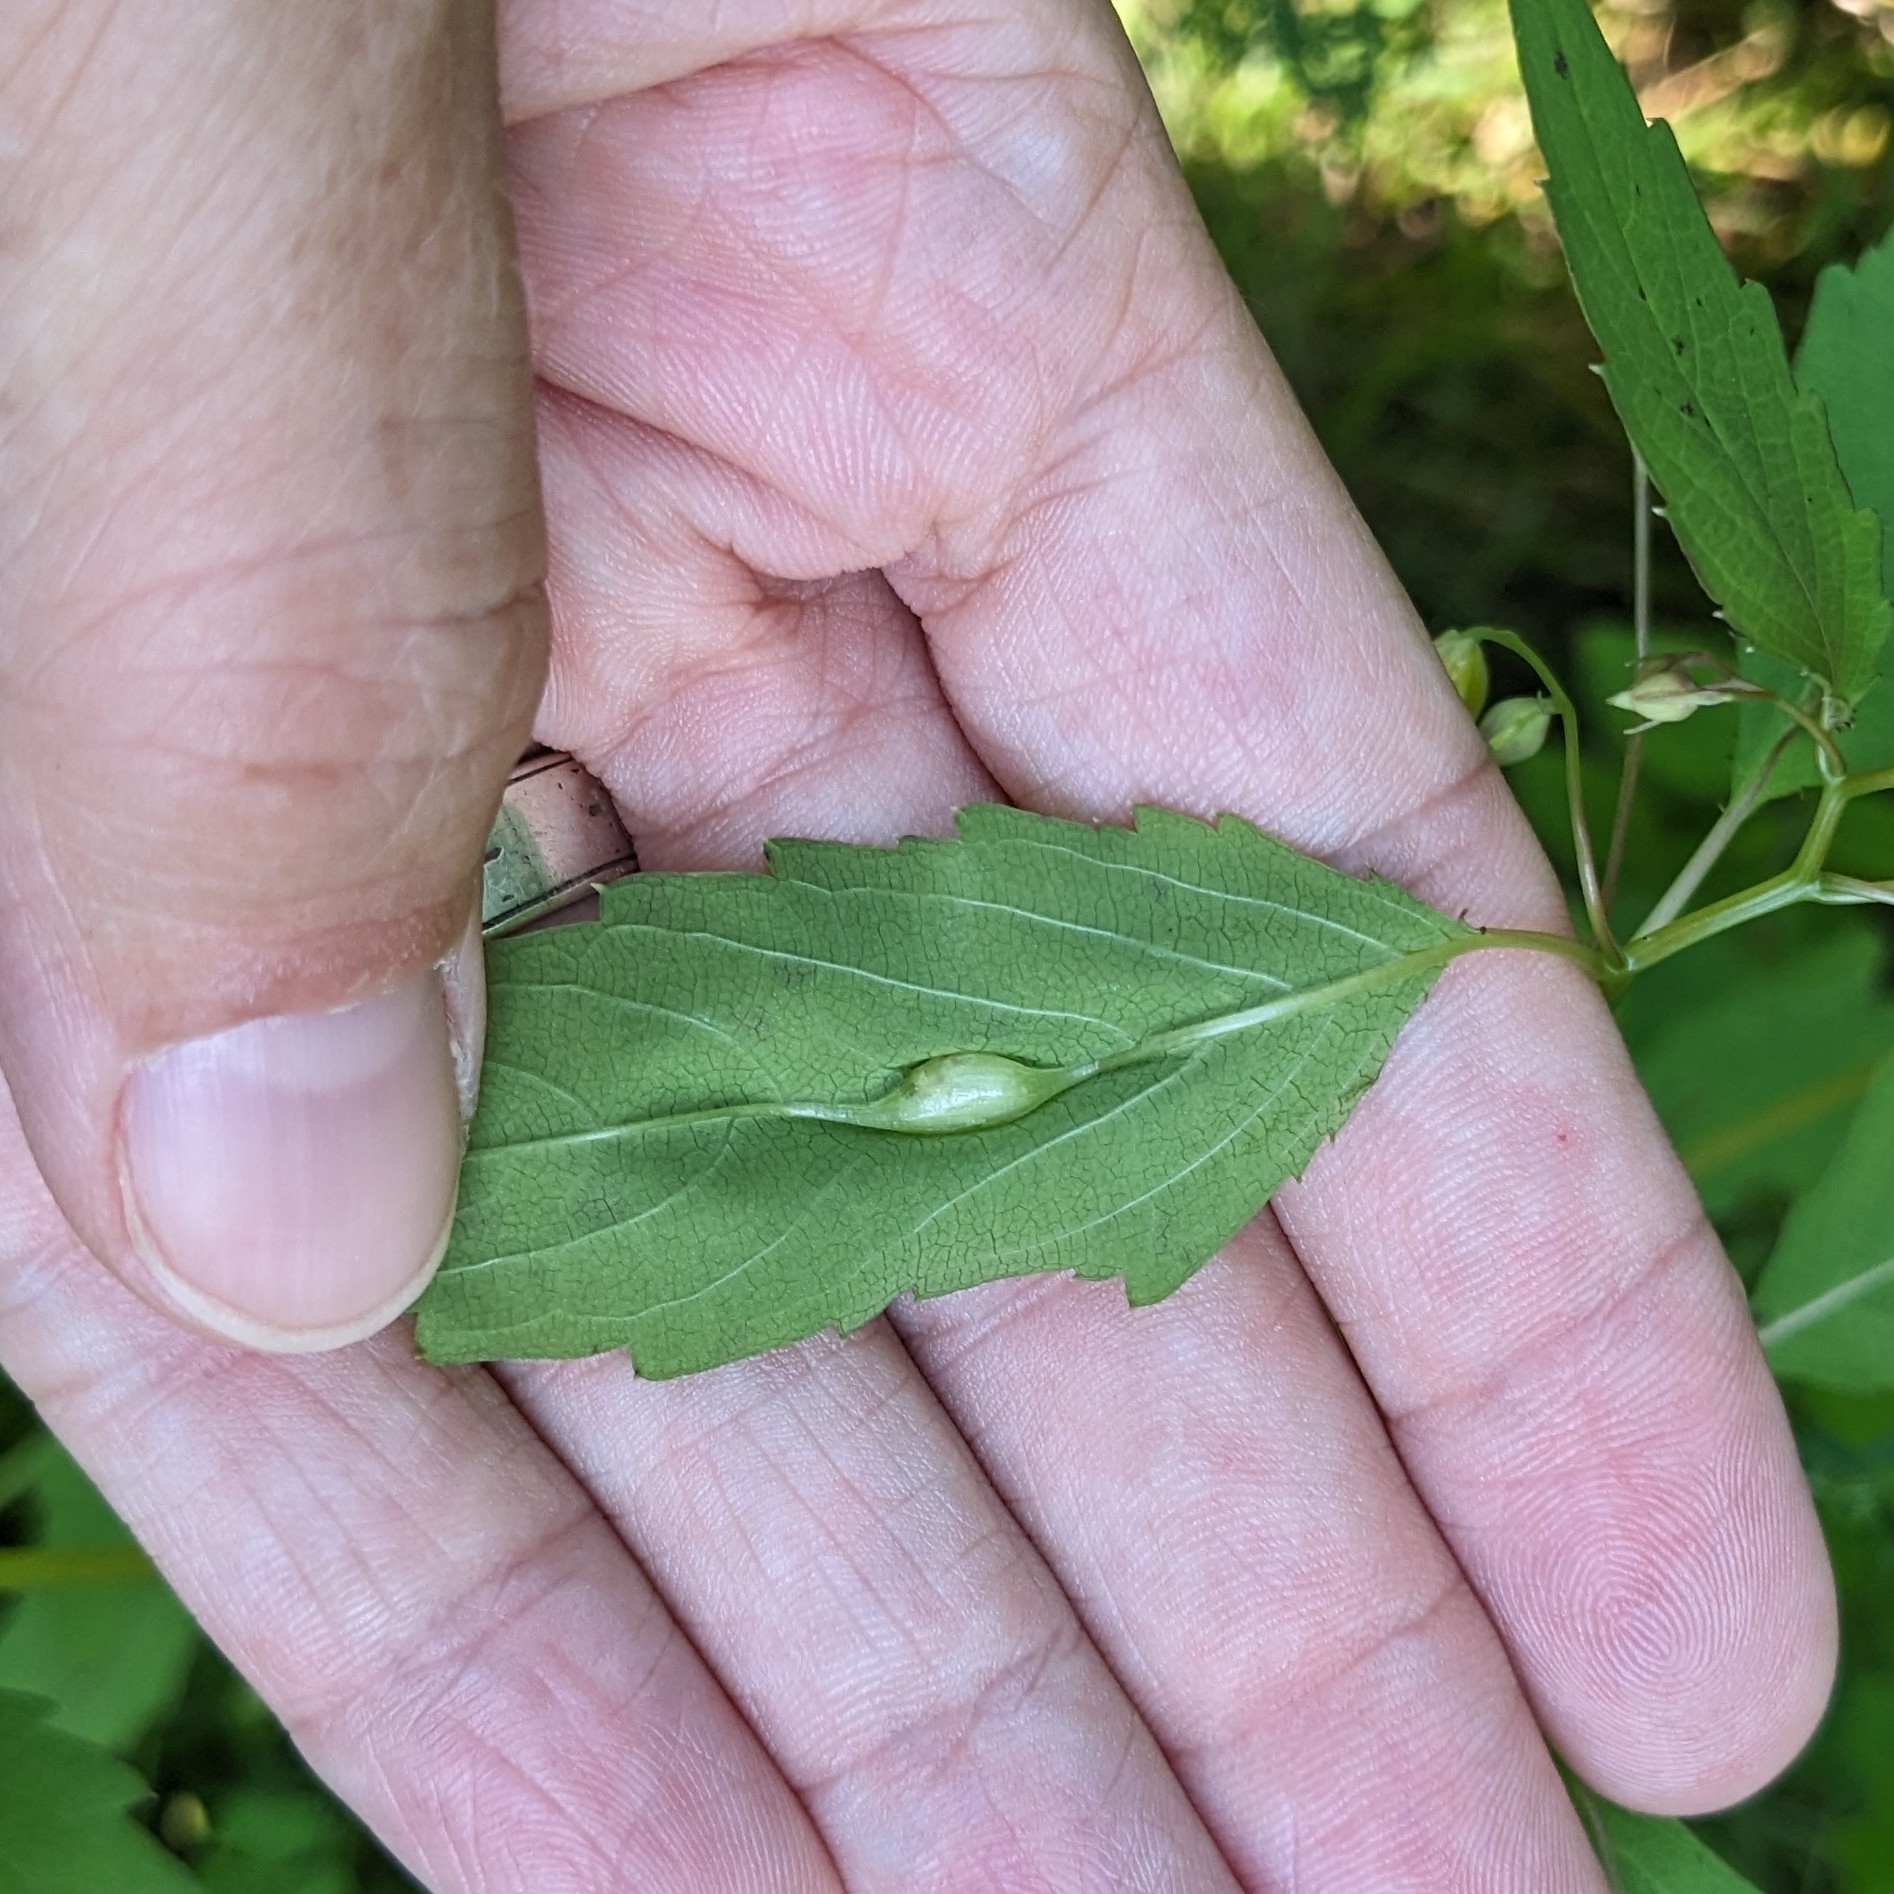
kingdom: Animalia
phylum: Arthropoda
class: Insecta
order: Diptera
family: Cecidomyiidae
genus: Neolasioptera
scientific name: Neolasioptera impatientifolia
